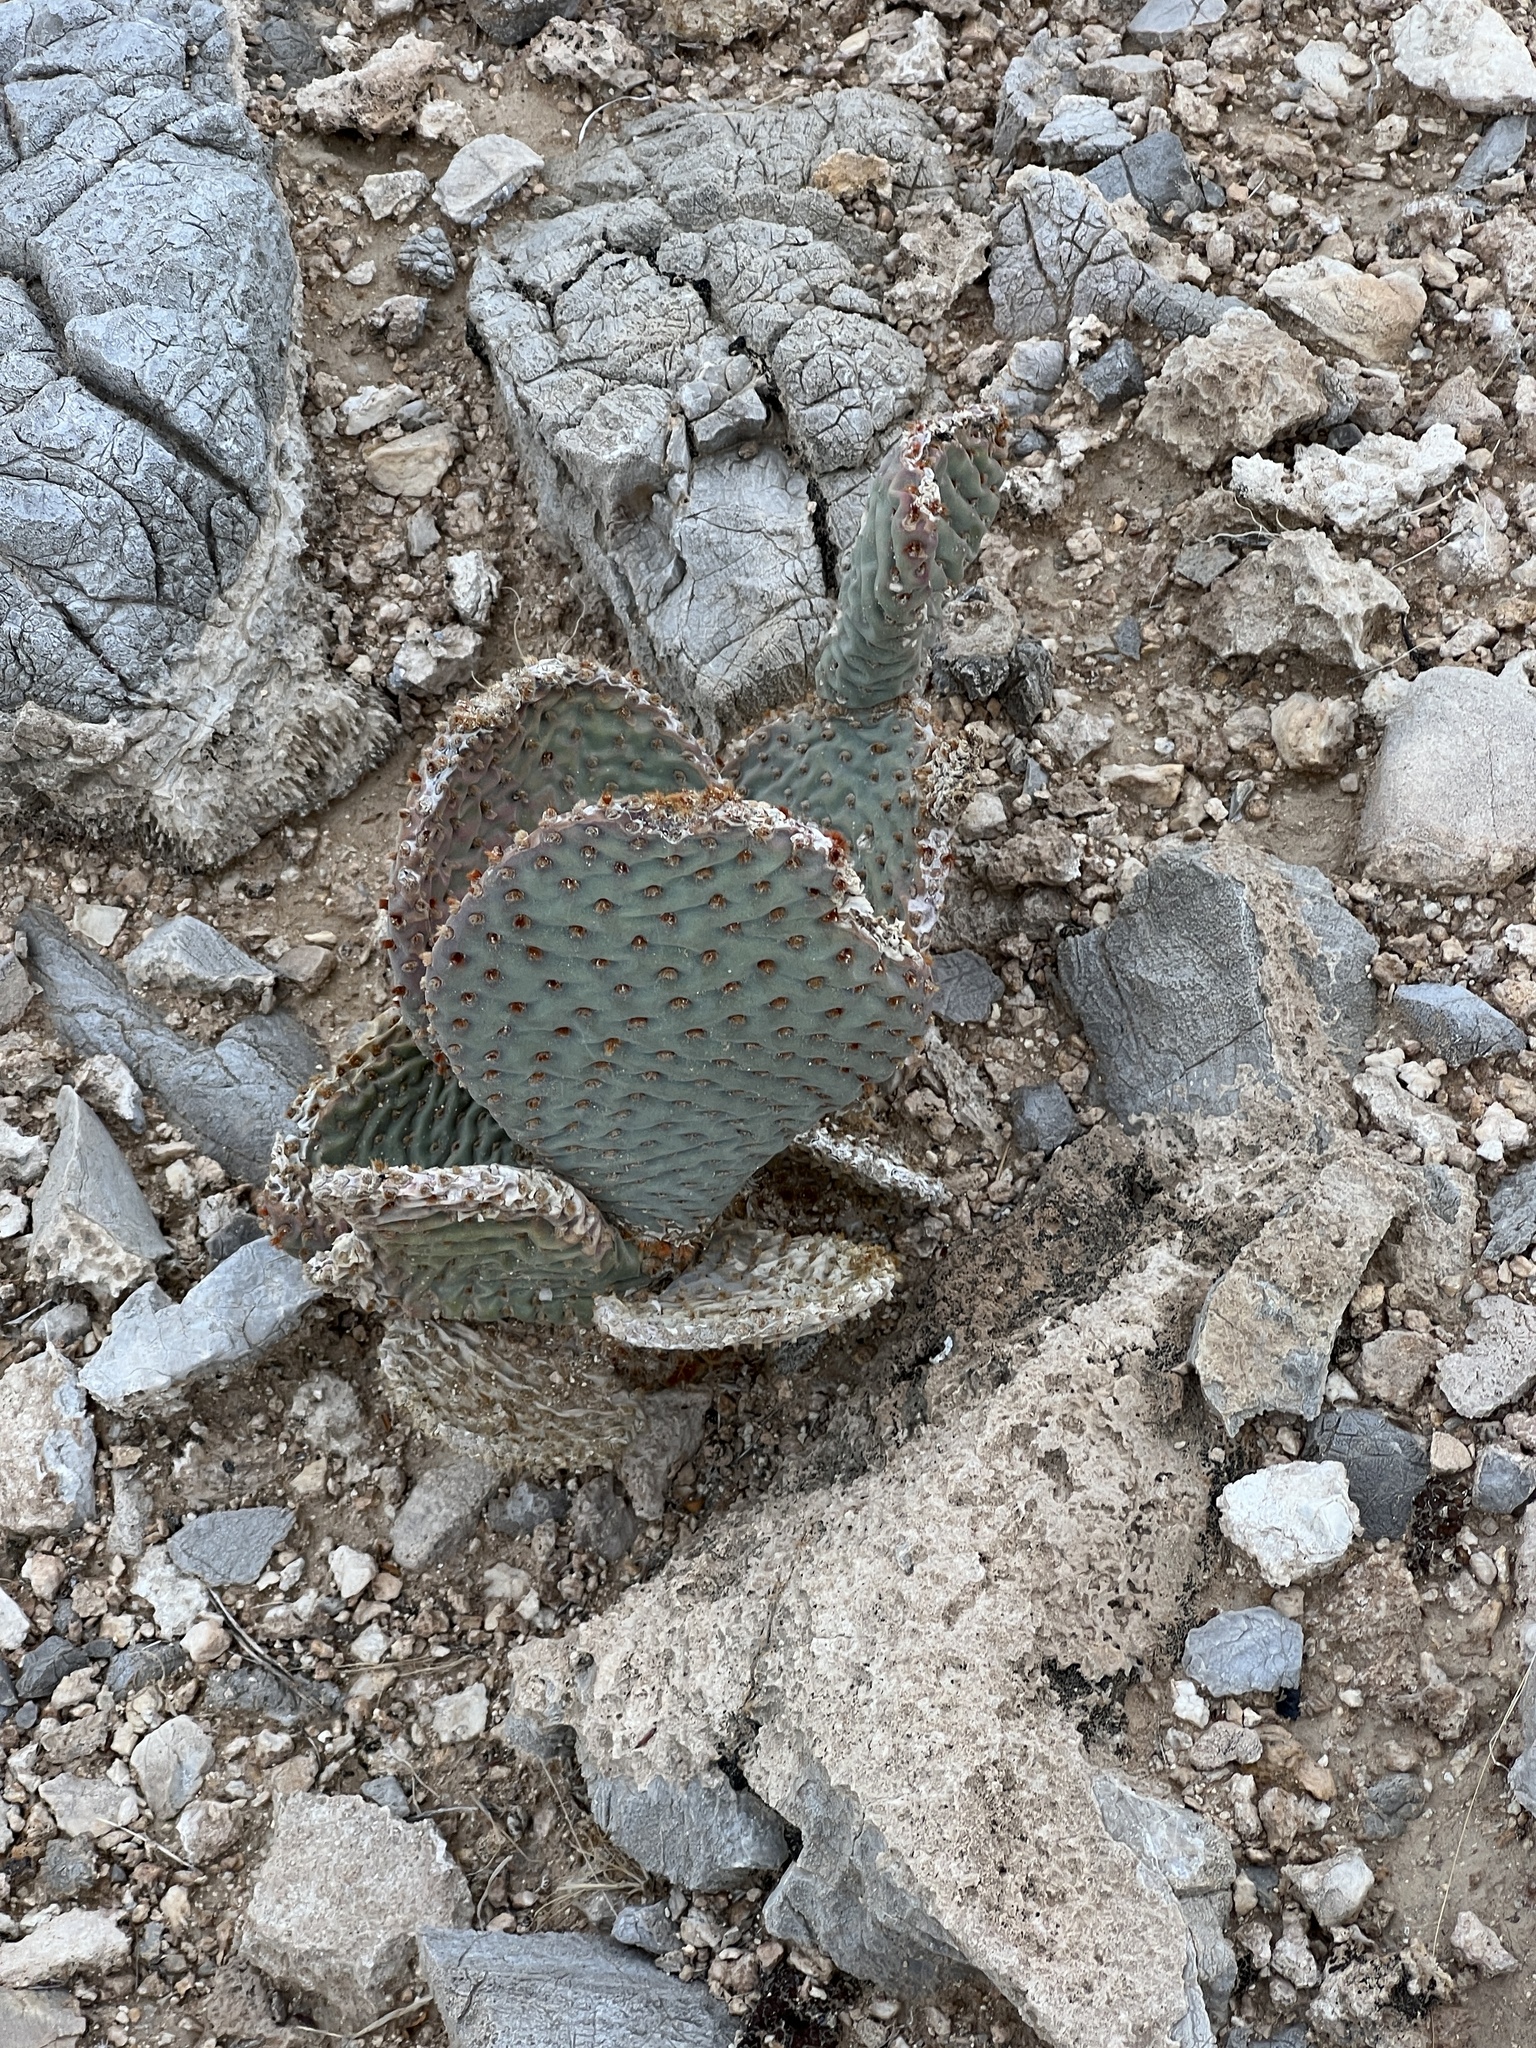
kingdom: Plantae
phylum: Tracheophyta
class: Magnoliopsida
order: Caryophyllales
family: Cactaceae
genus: Opuntia
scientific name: Opuntia basilaris
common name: Beavertail prickly-pear
